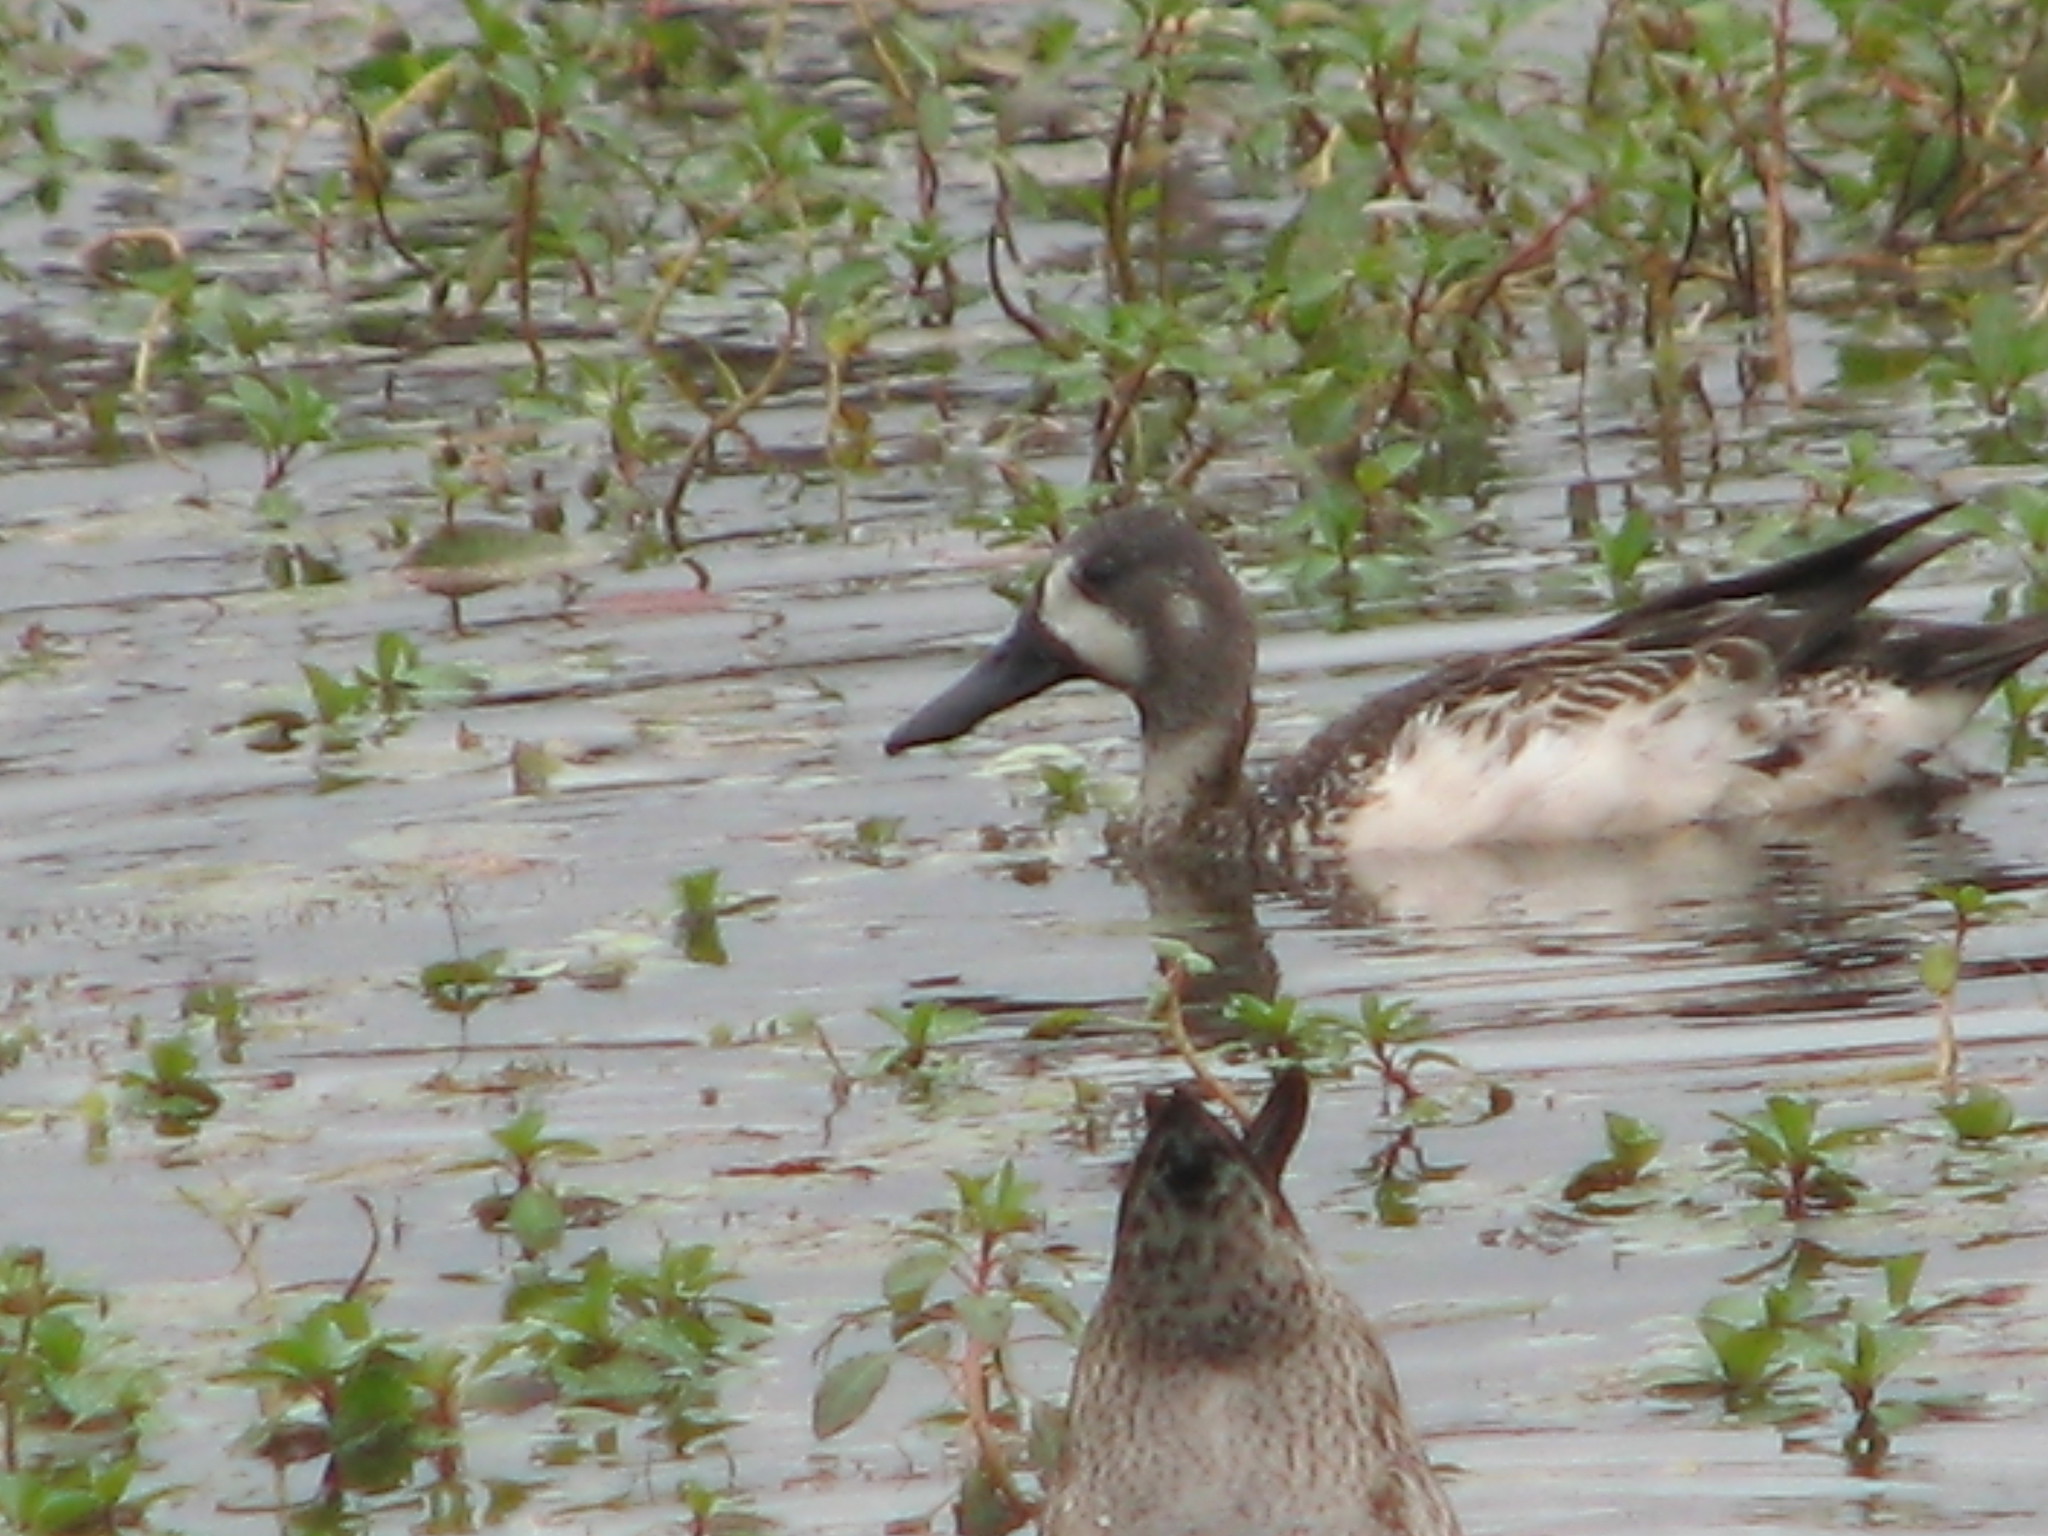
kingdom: Animalia
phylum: Chordata
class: Aves
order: Anseriformes
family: Anatidae
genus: Spatula
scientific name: Spatula discors
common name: Blue-winged teal
